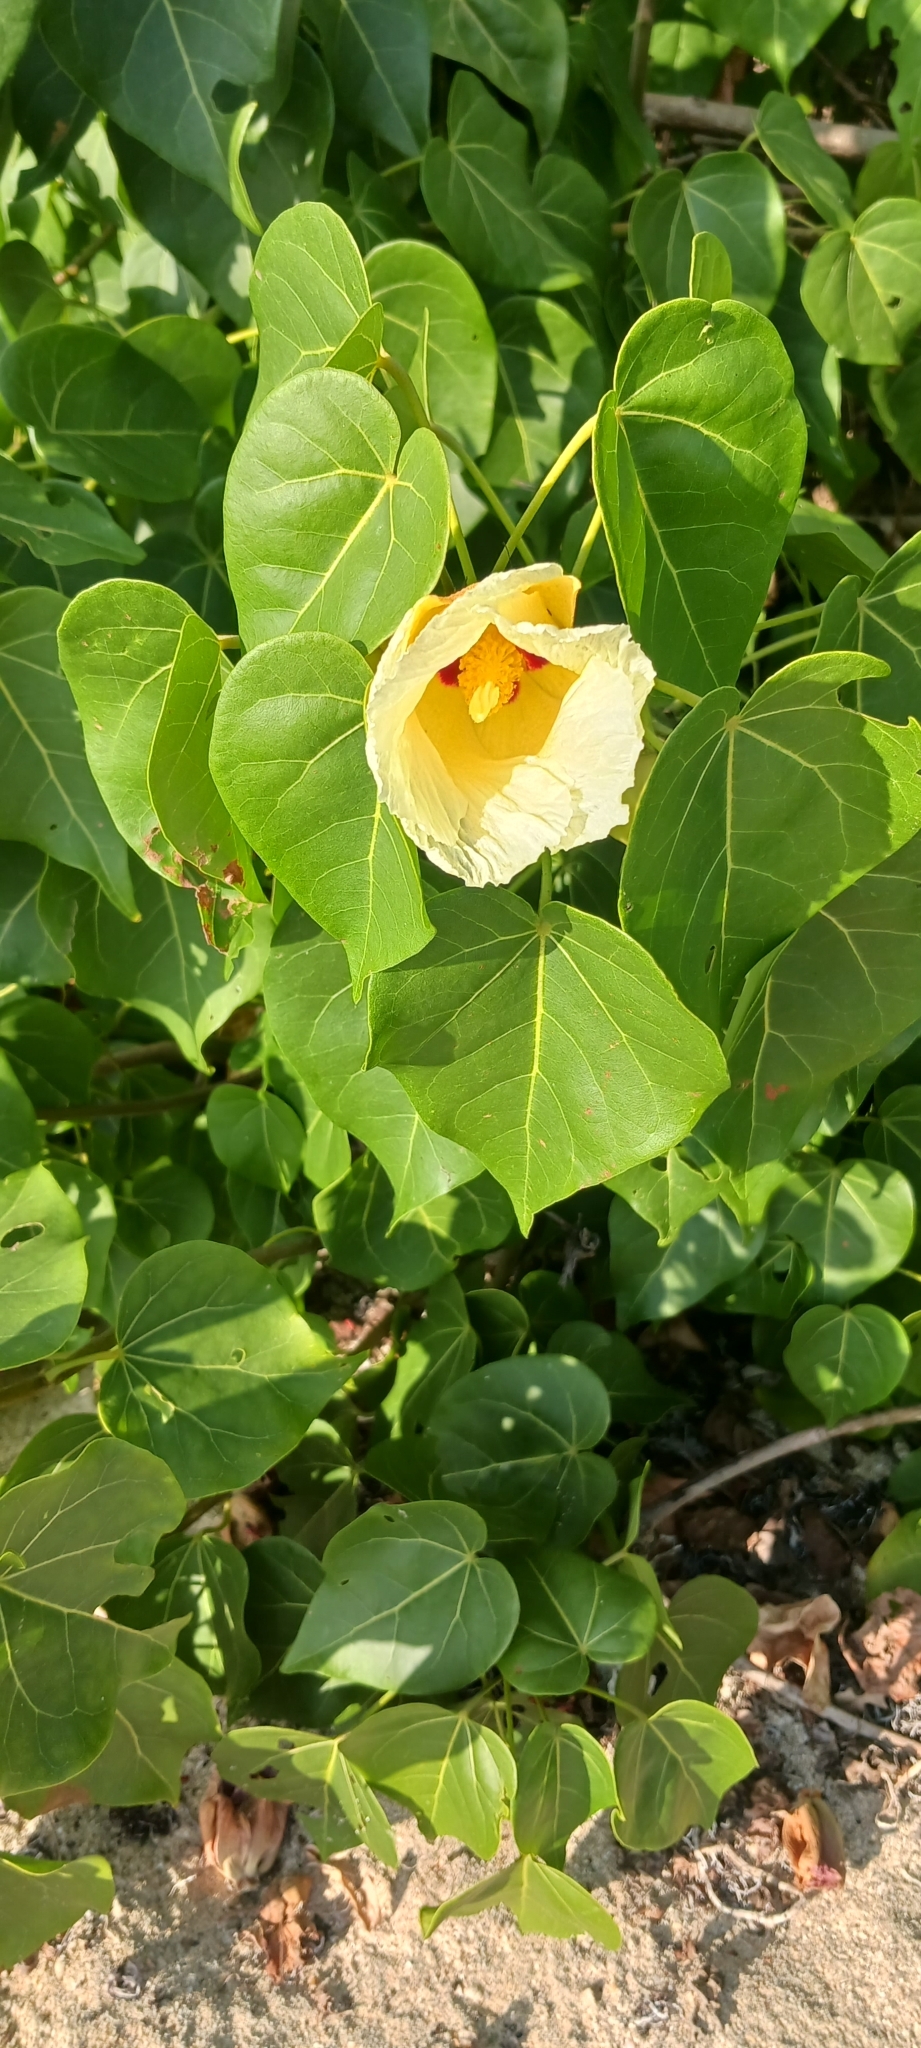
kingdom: Plantae
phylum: Tracheophyta
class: Magnoliopsida
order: Malvales
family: Malvaceae
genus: Thespesia
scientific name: Thespesia populnea
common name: Seaside mahoe
